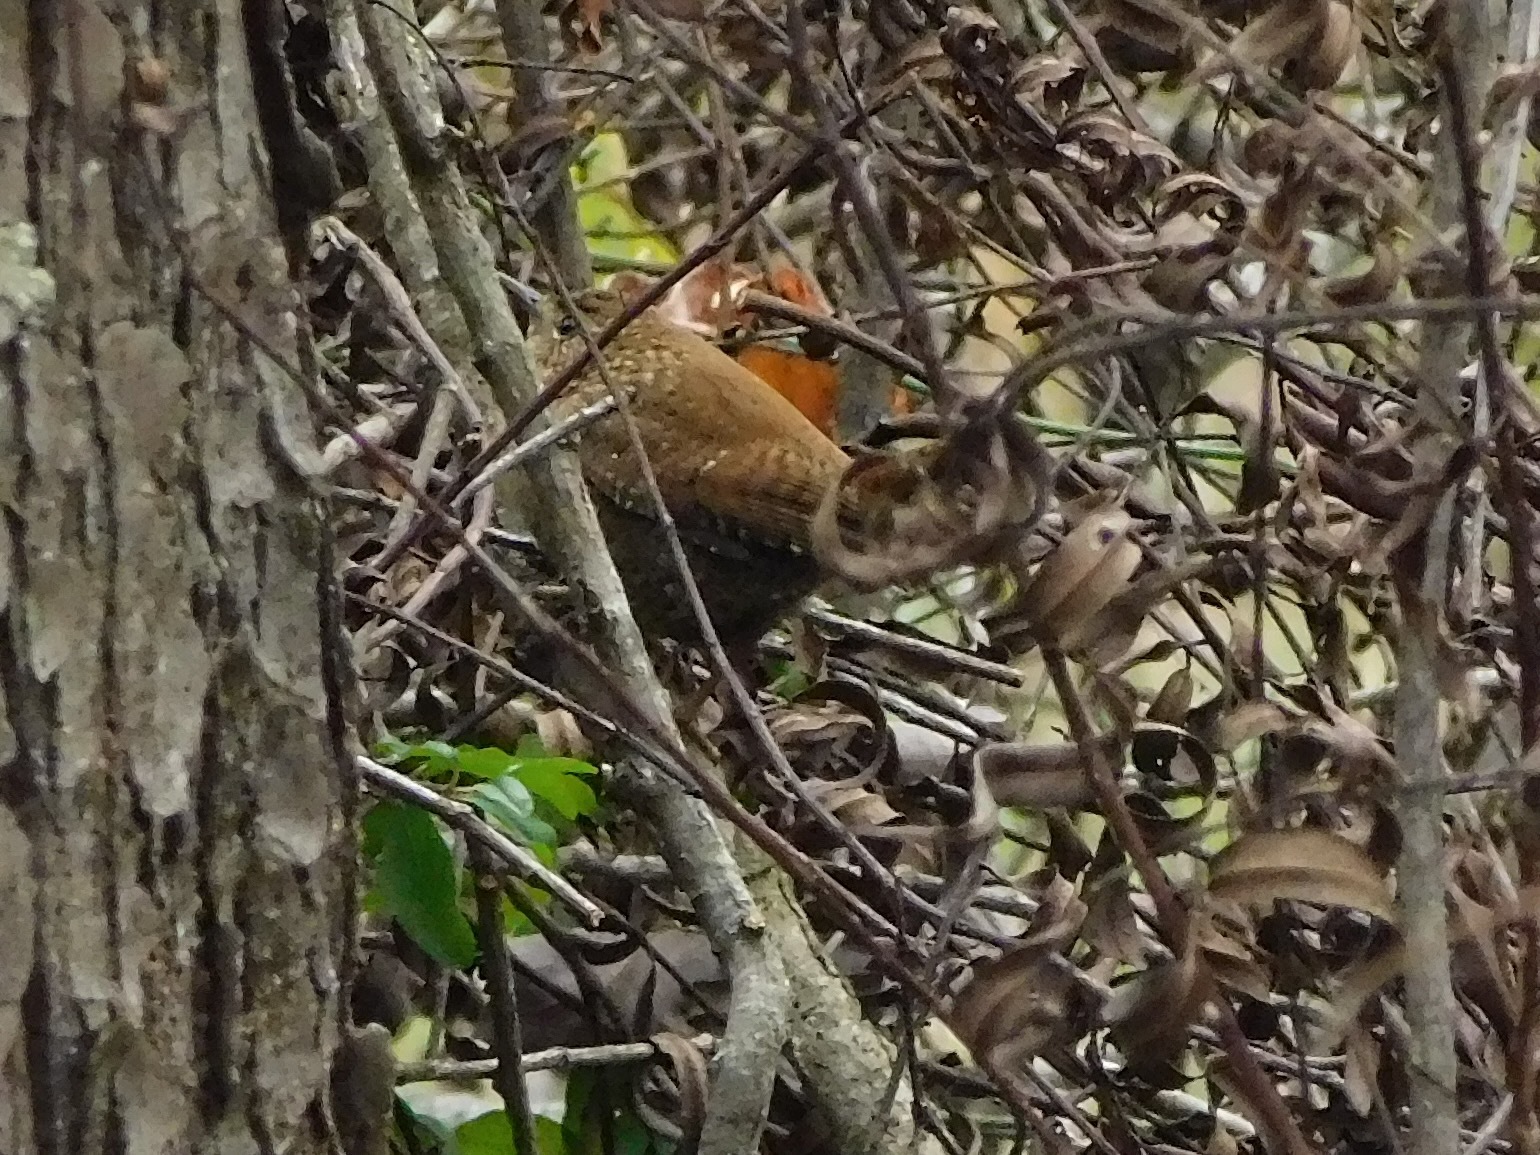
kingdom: Animalia
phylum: Chordata
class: Aves
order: Passeriformes
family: Troglodytidae
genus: Troglodytes
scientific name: Troglodytes hiemalis
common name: Winter wren
